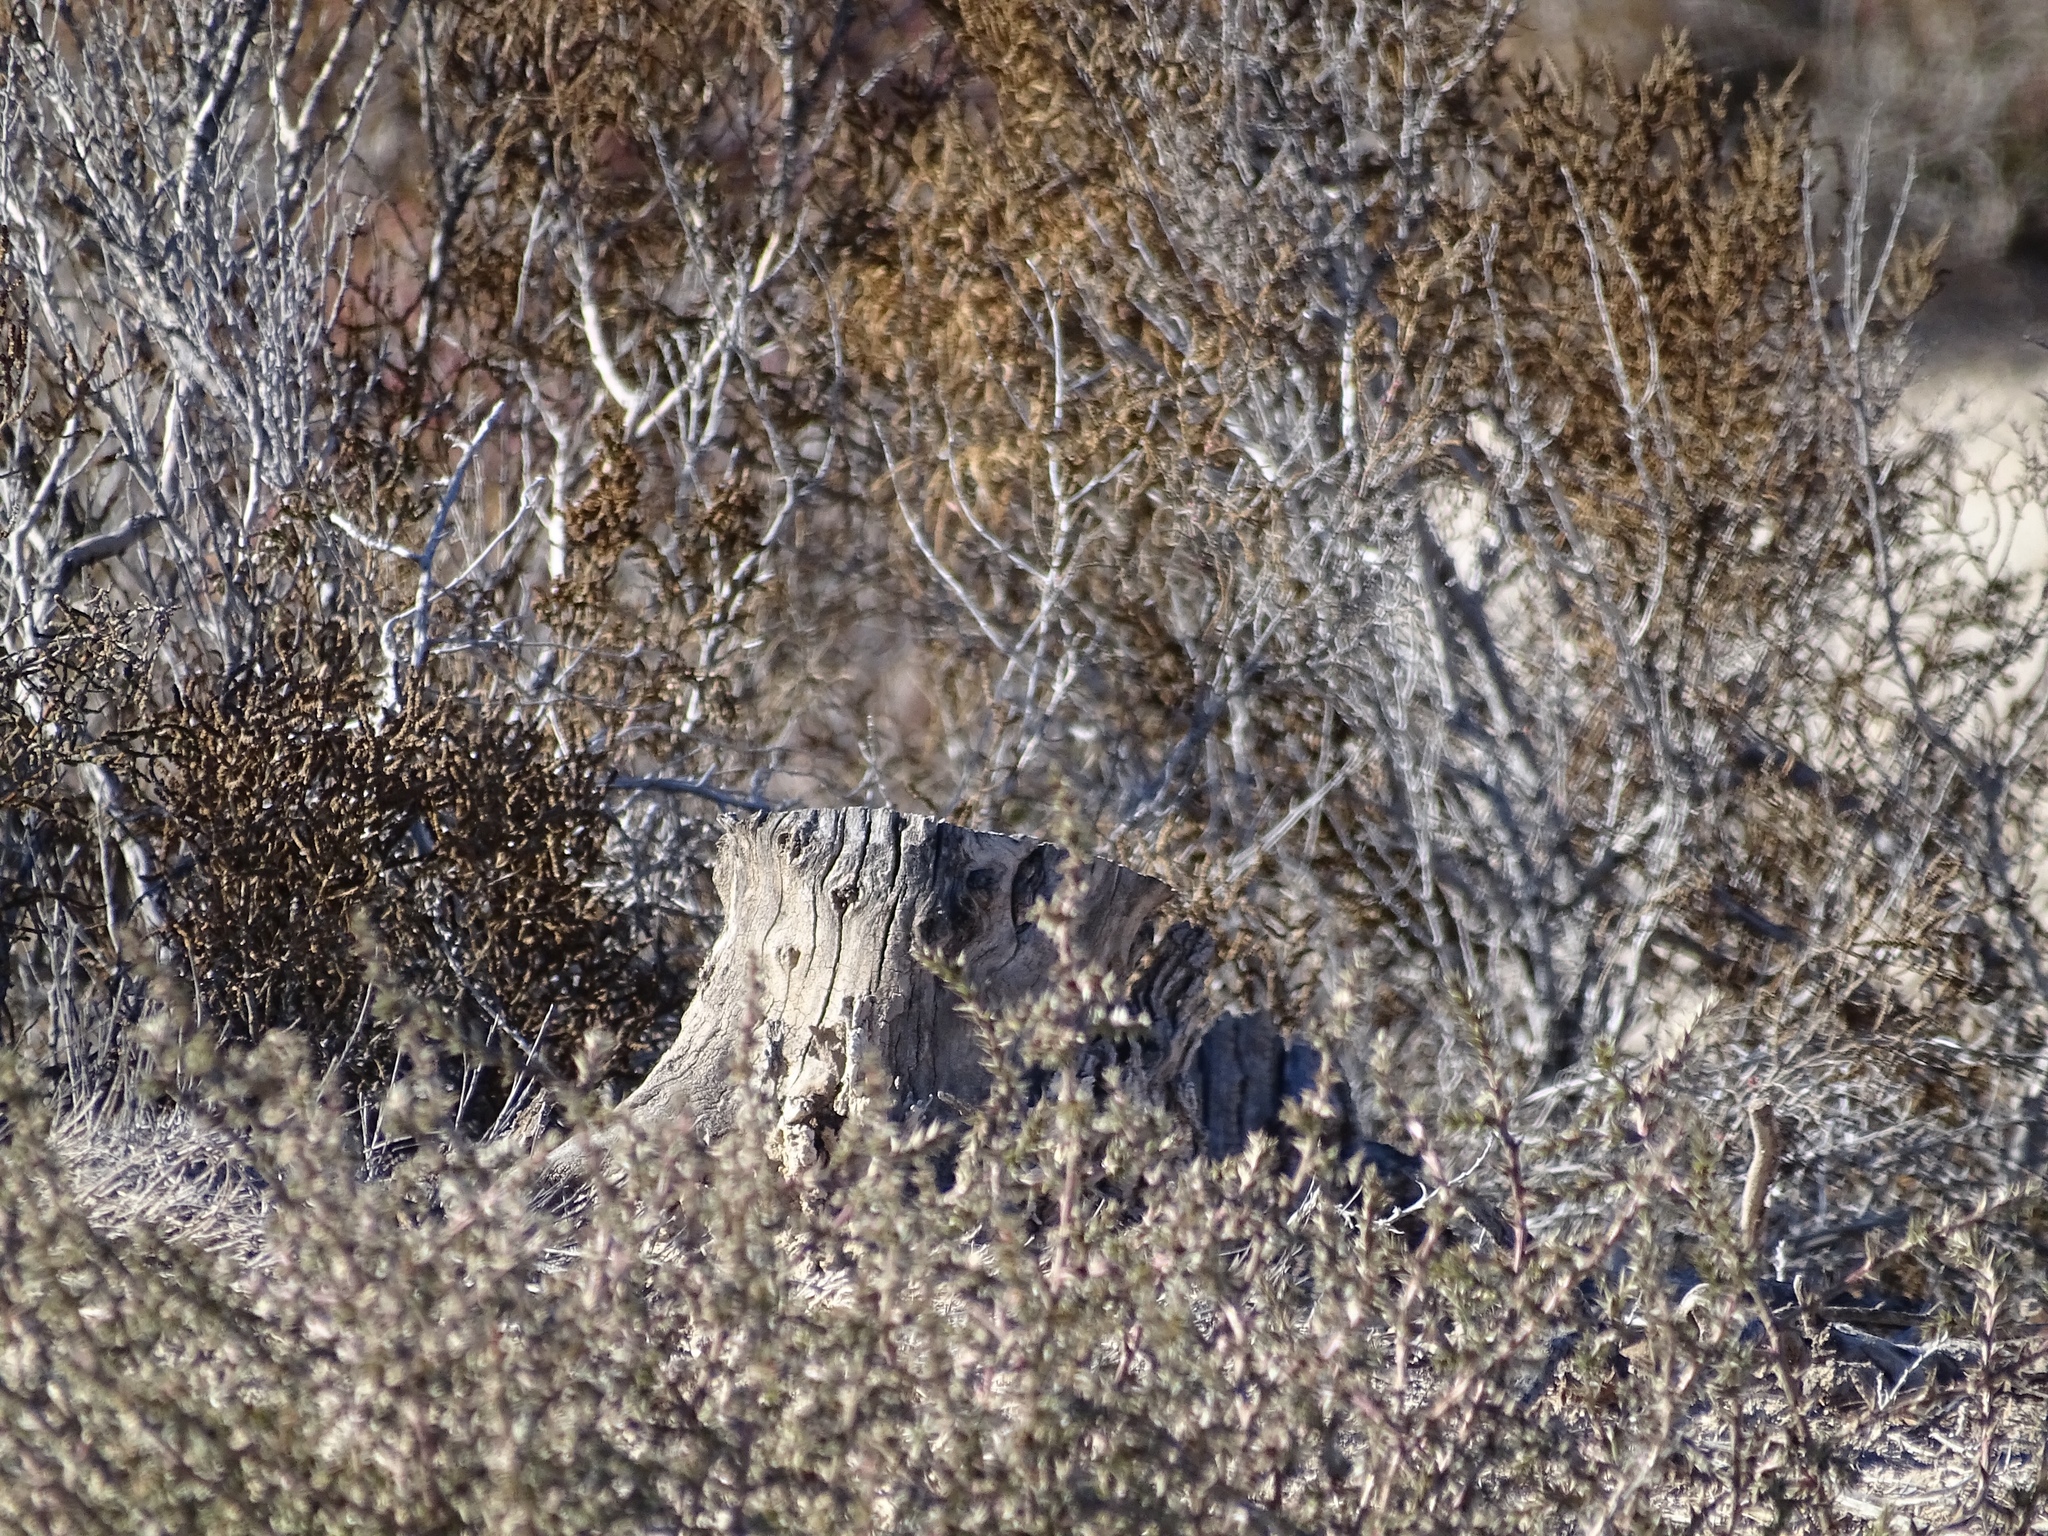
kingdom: Animalia
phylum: Chordata
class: Aves
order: Passeriformes
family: Icteridae
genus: Sturnella
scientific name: Sturnella neglecta
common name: Western meadowlark
